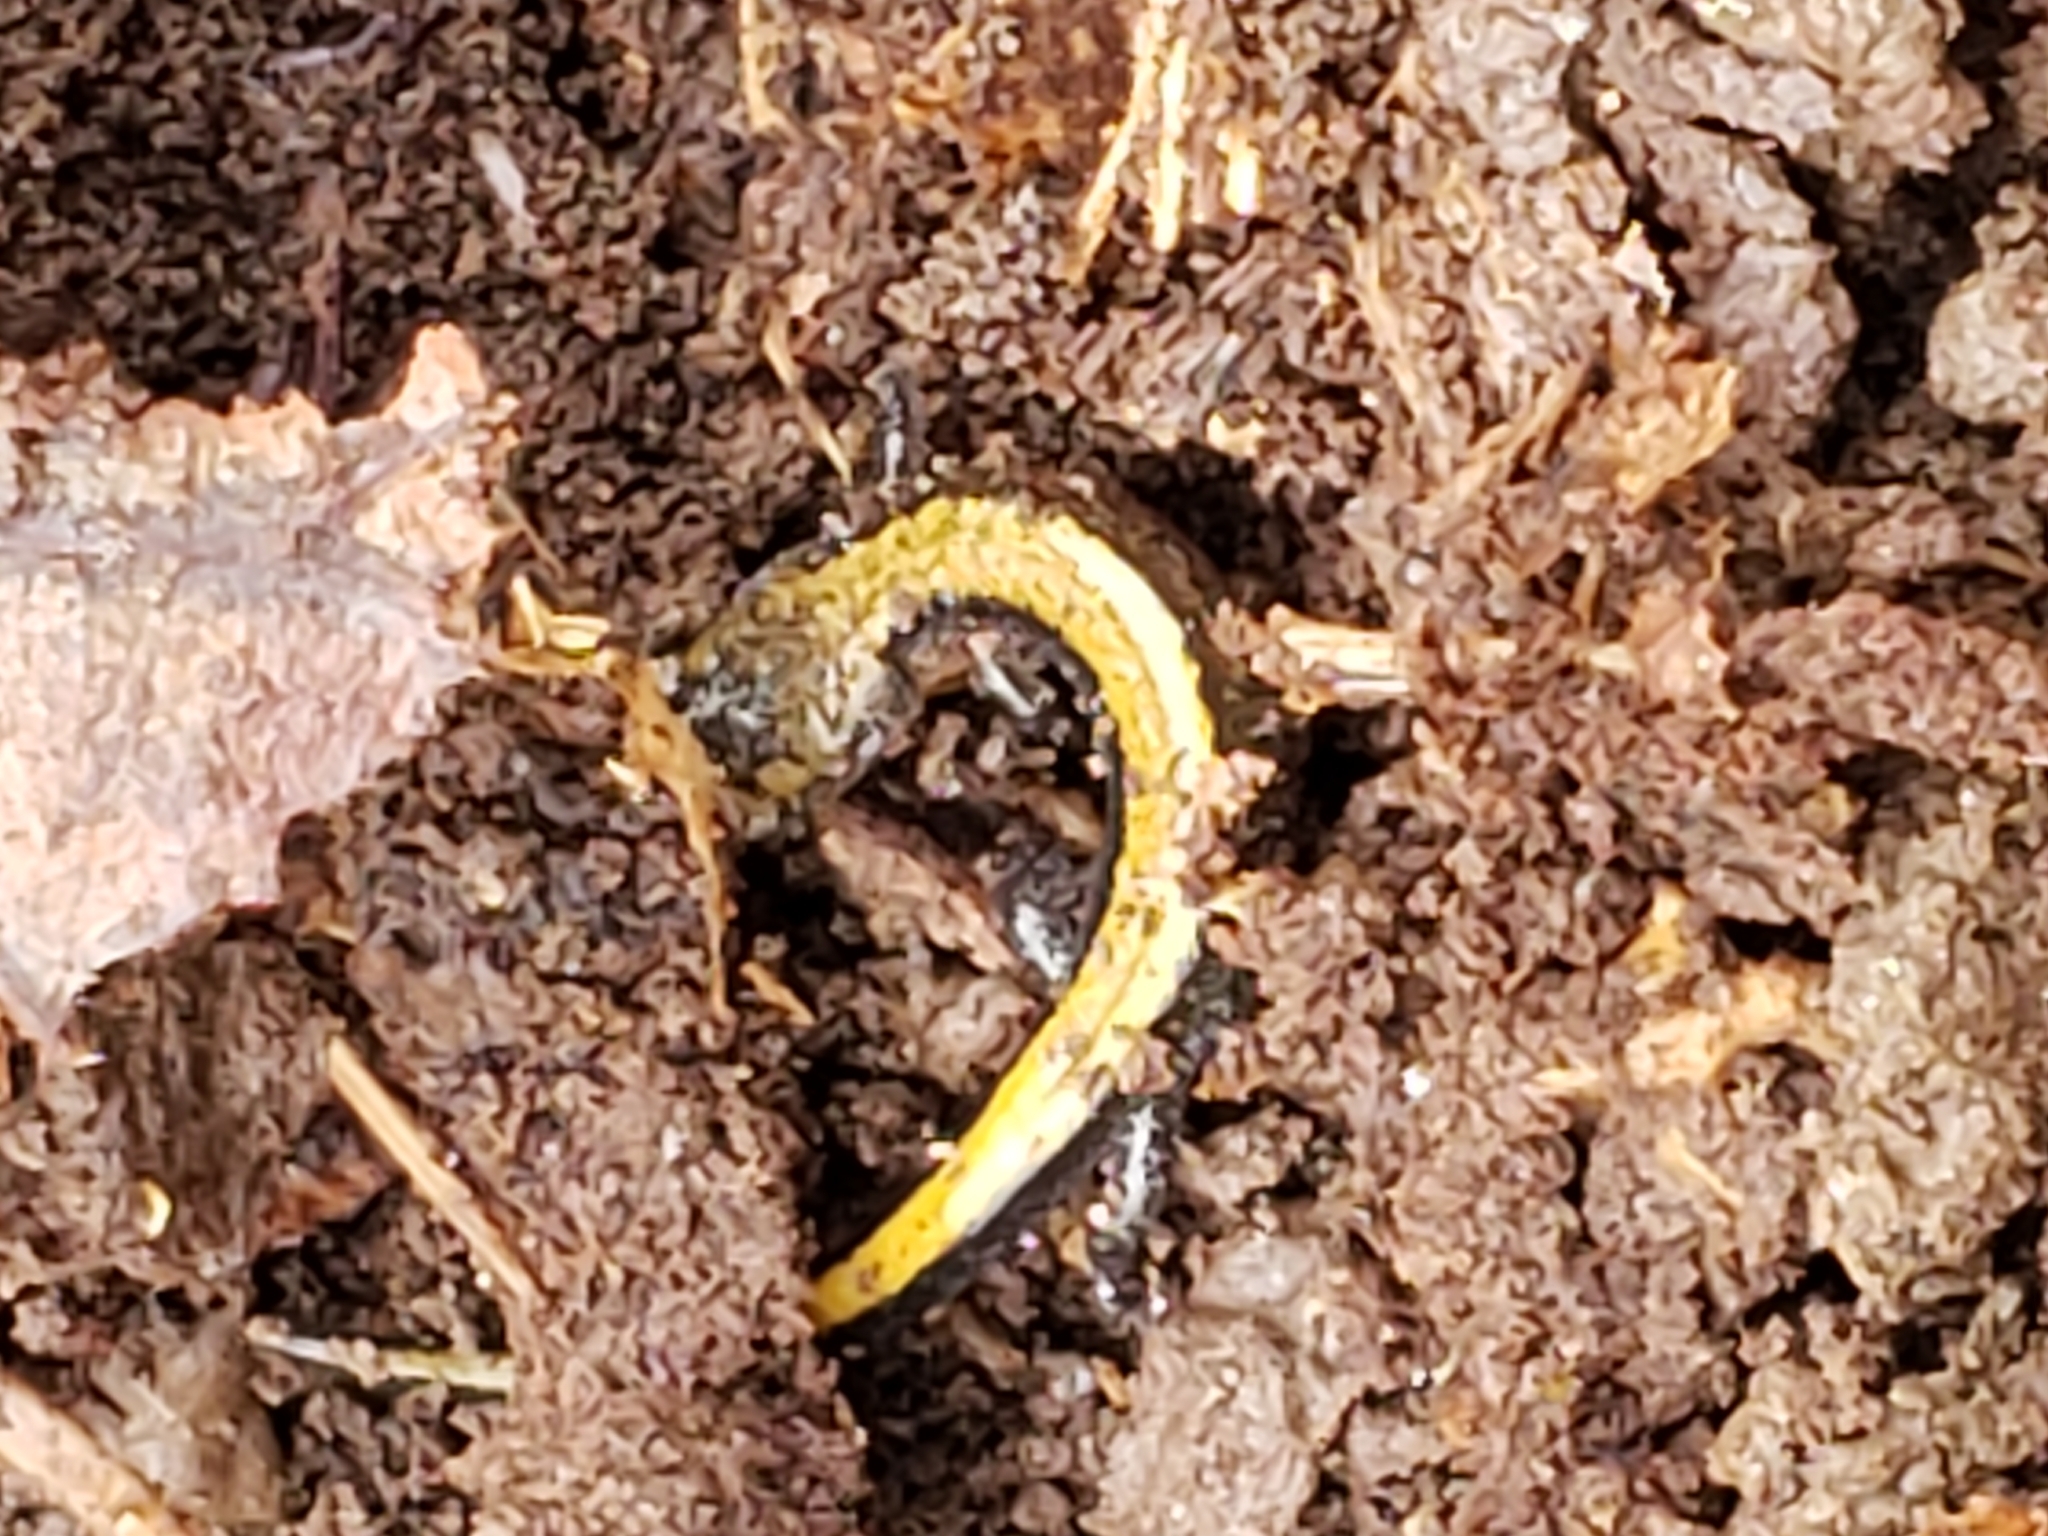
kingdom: Animalia
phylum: Chordata
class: Amphibia
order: Caudata
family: Plethodontidae
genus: Plethodon
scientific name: Plethodon cinereus
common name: Redback salamander
